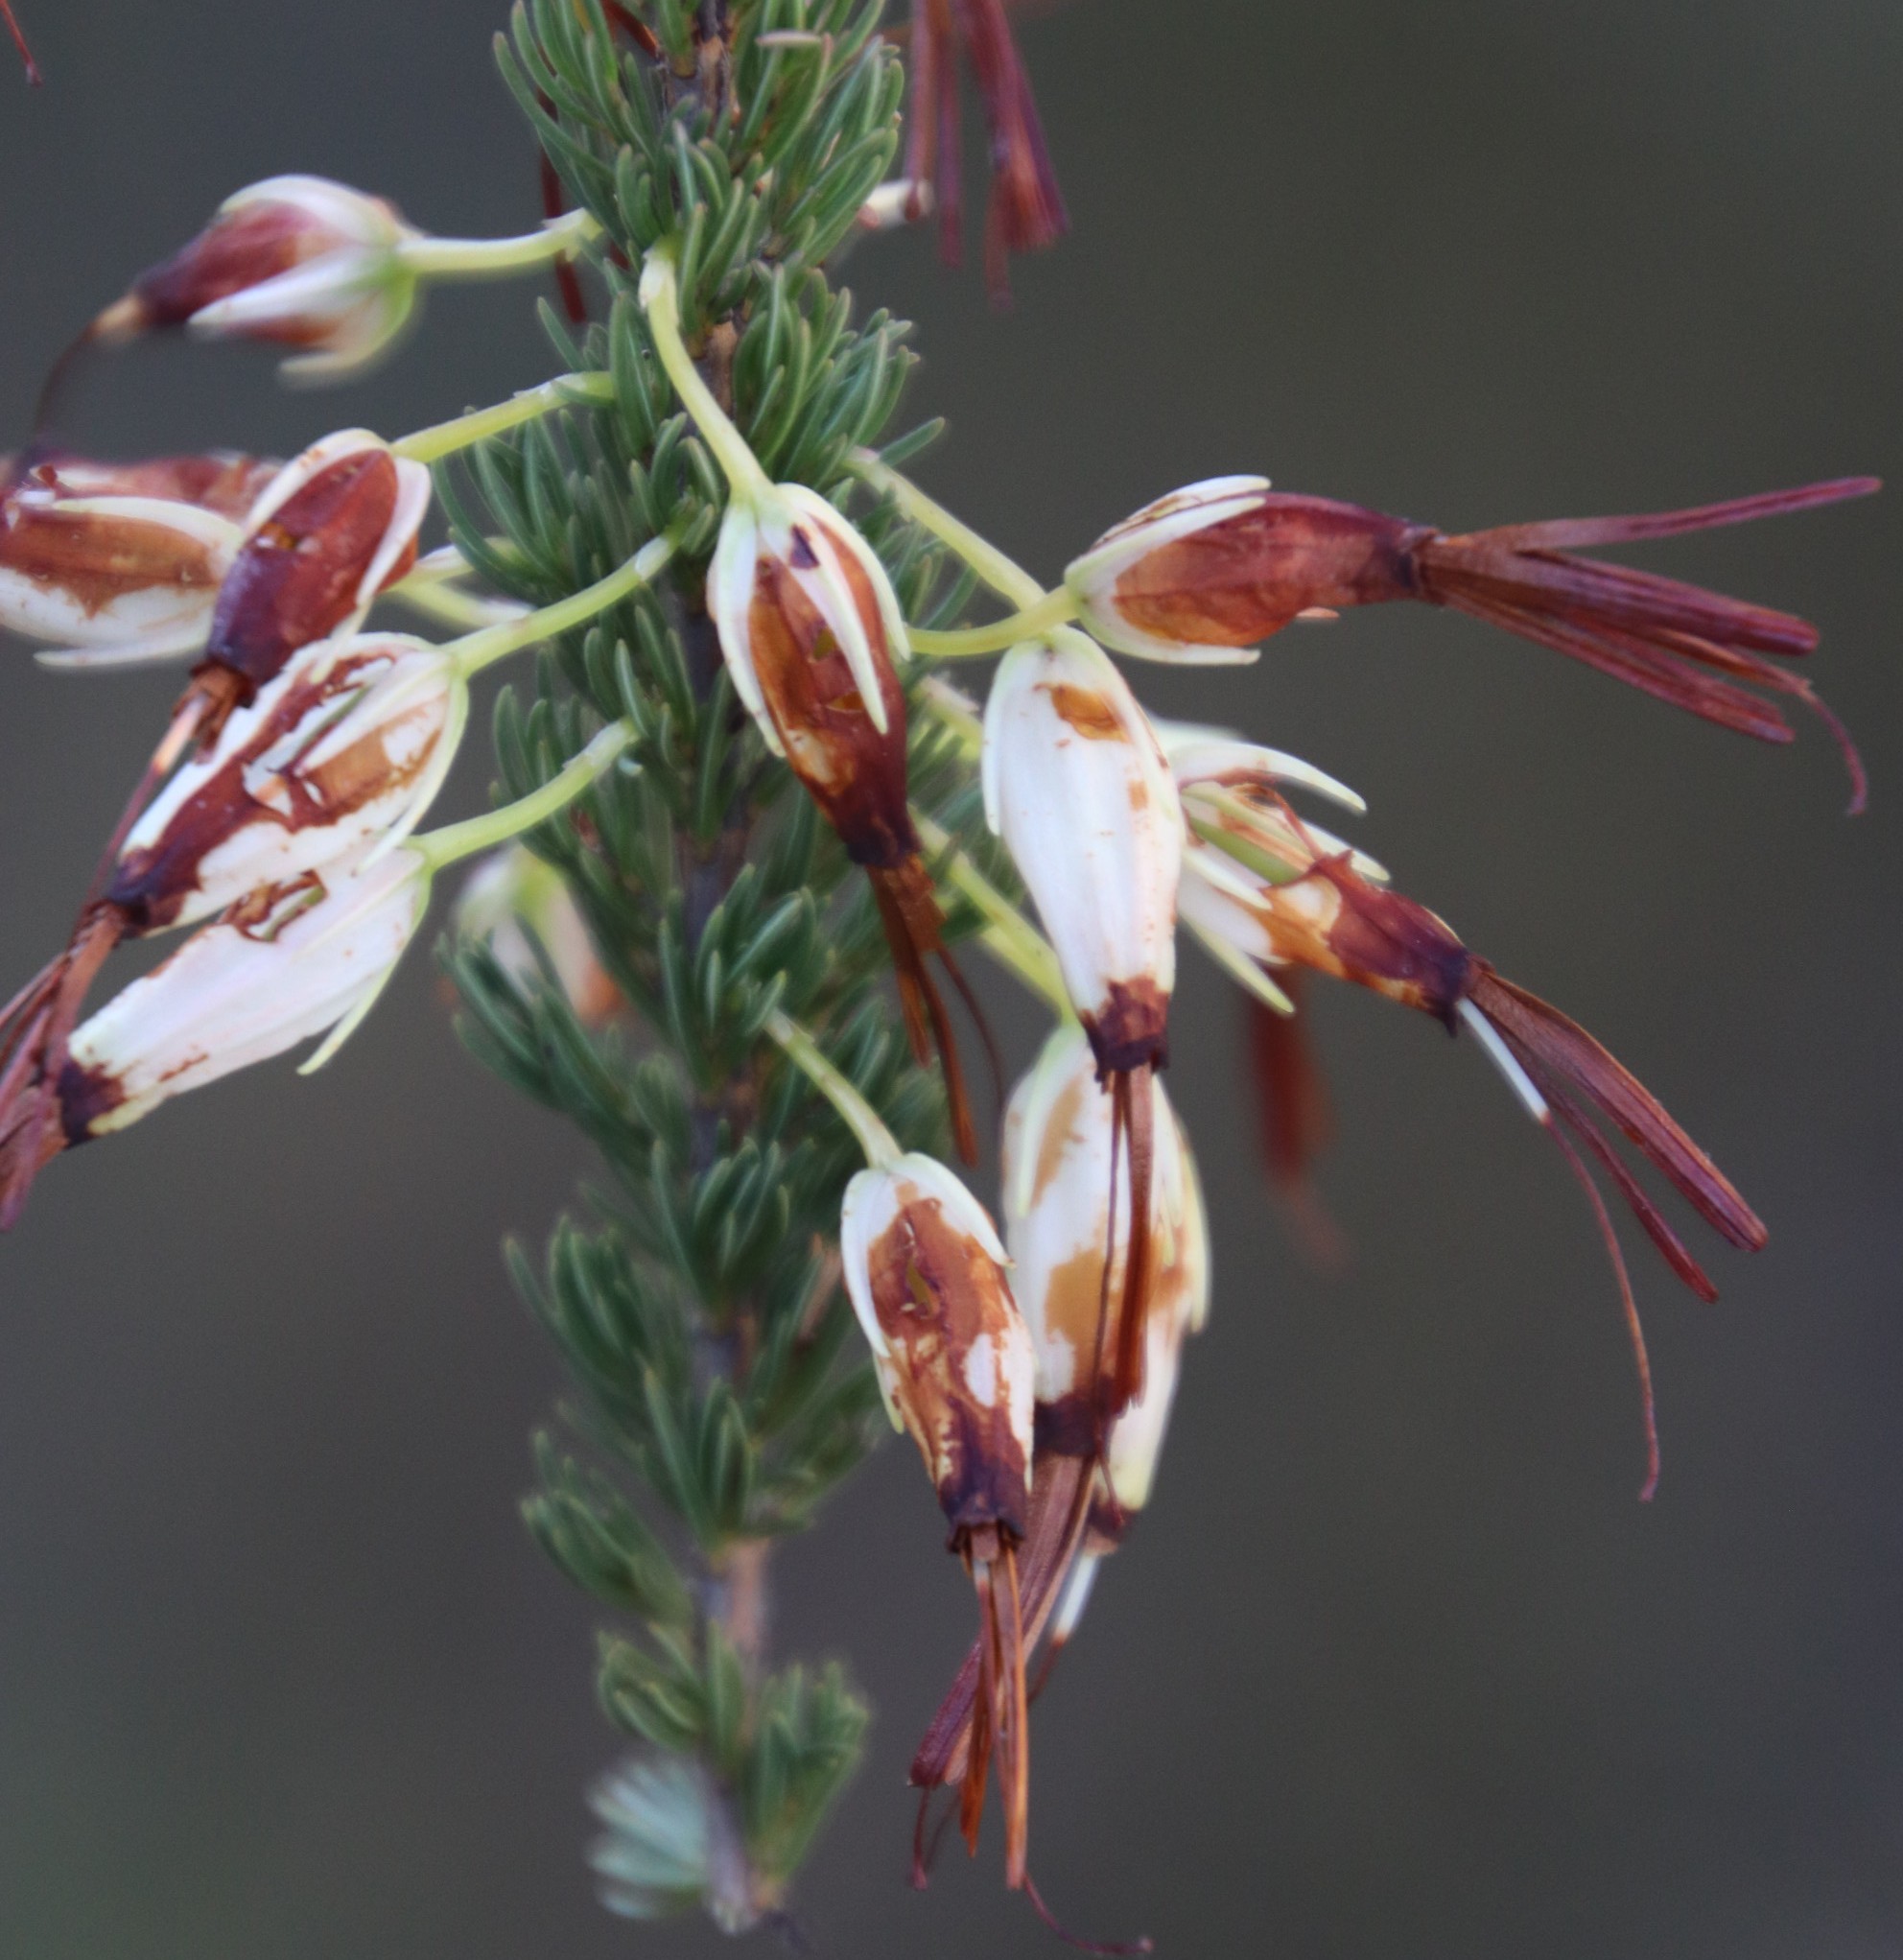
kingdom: Plantae
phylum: Tracheophyta
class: Magnoliopsida
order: Ericales
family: Ericaceae
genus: Erica
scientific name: Erica plukenetii
